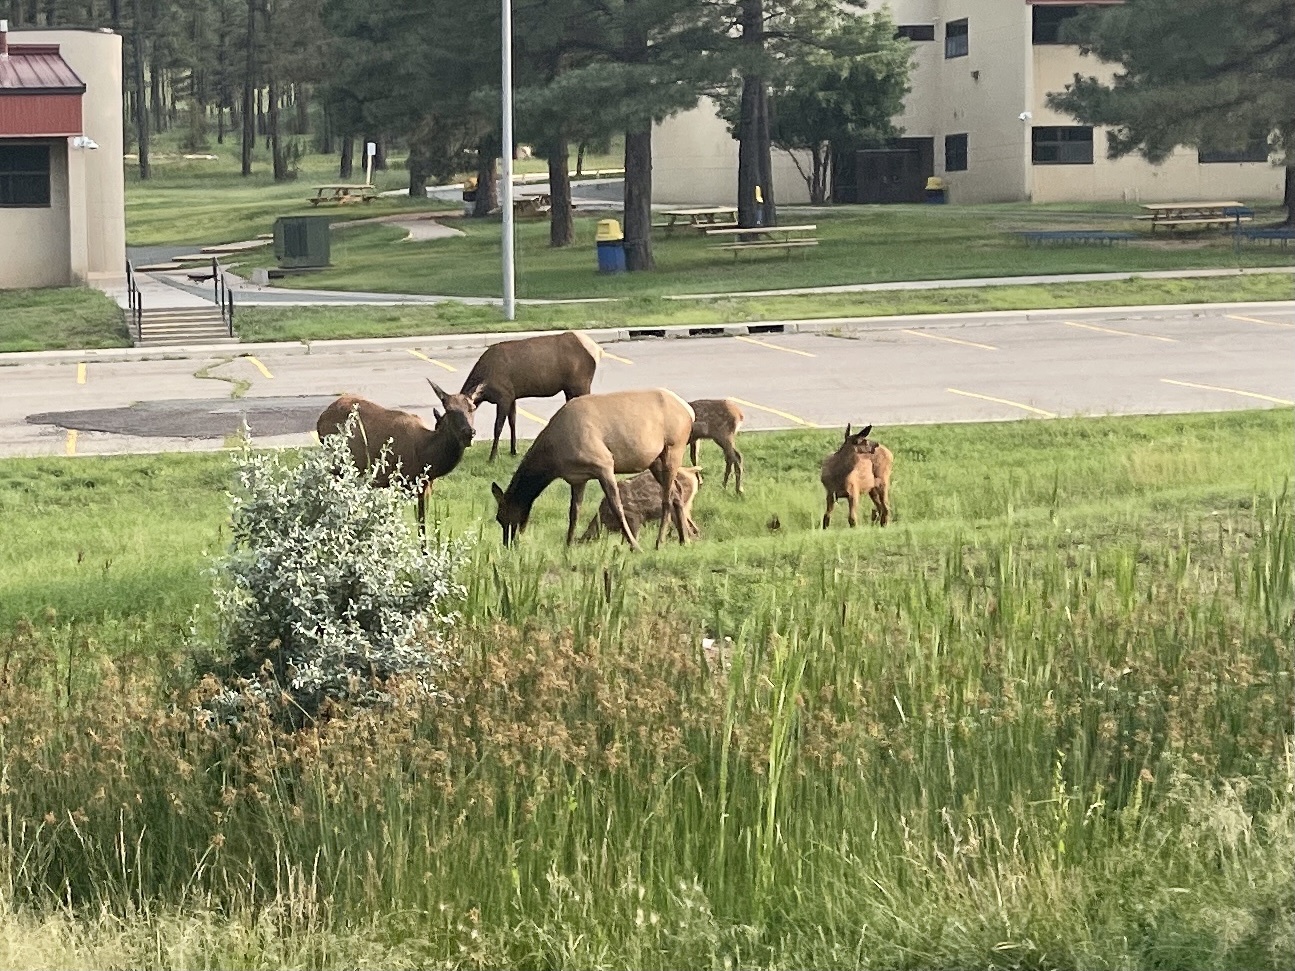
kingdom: Animalia
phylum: Chordata
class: Mammalia
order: Artiodactyla
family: Cervidae
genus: Cervus
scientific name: Cervus elaphus
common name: Red deer
